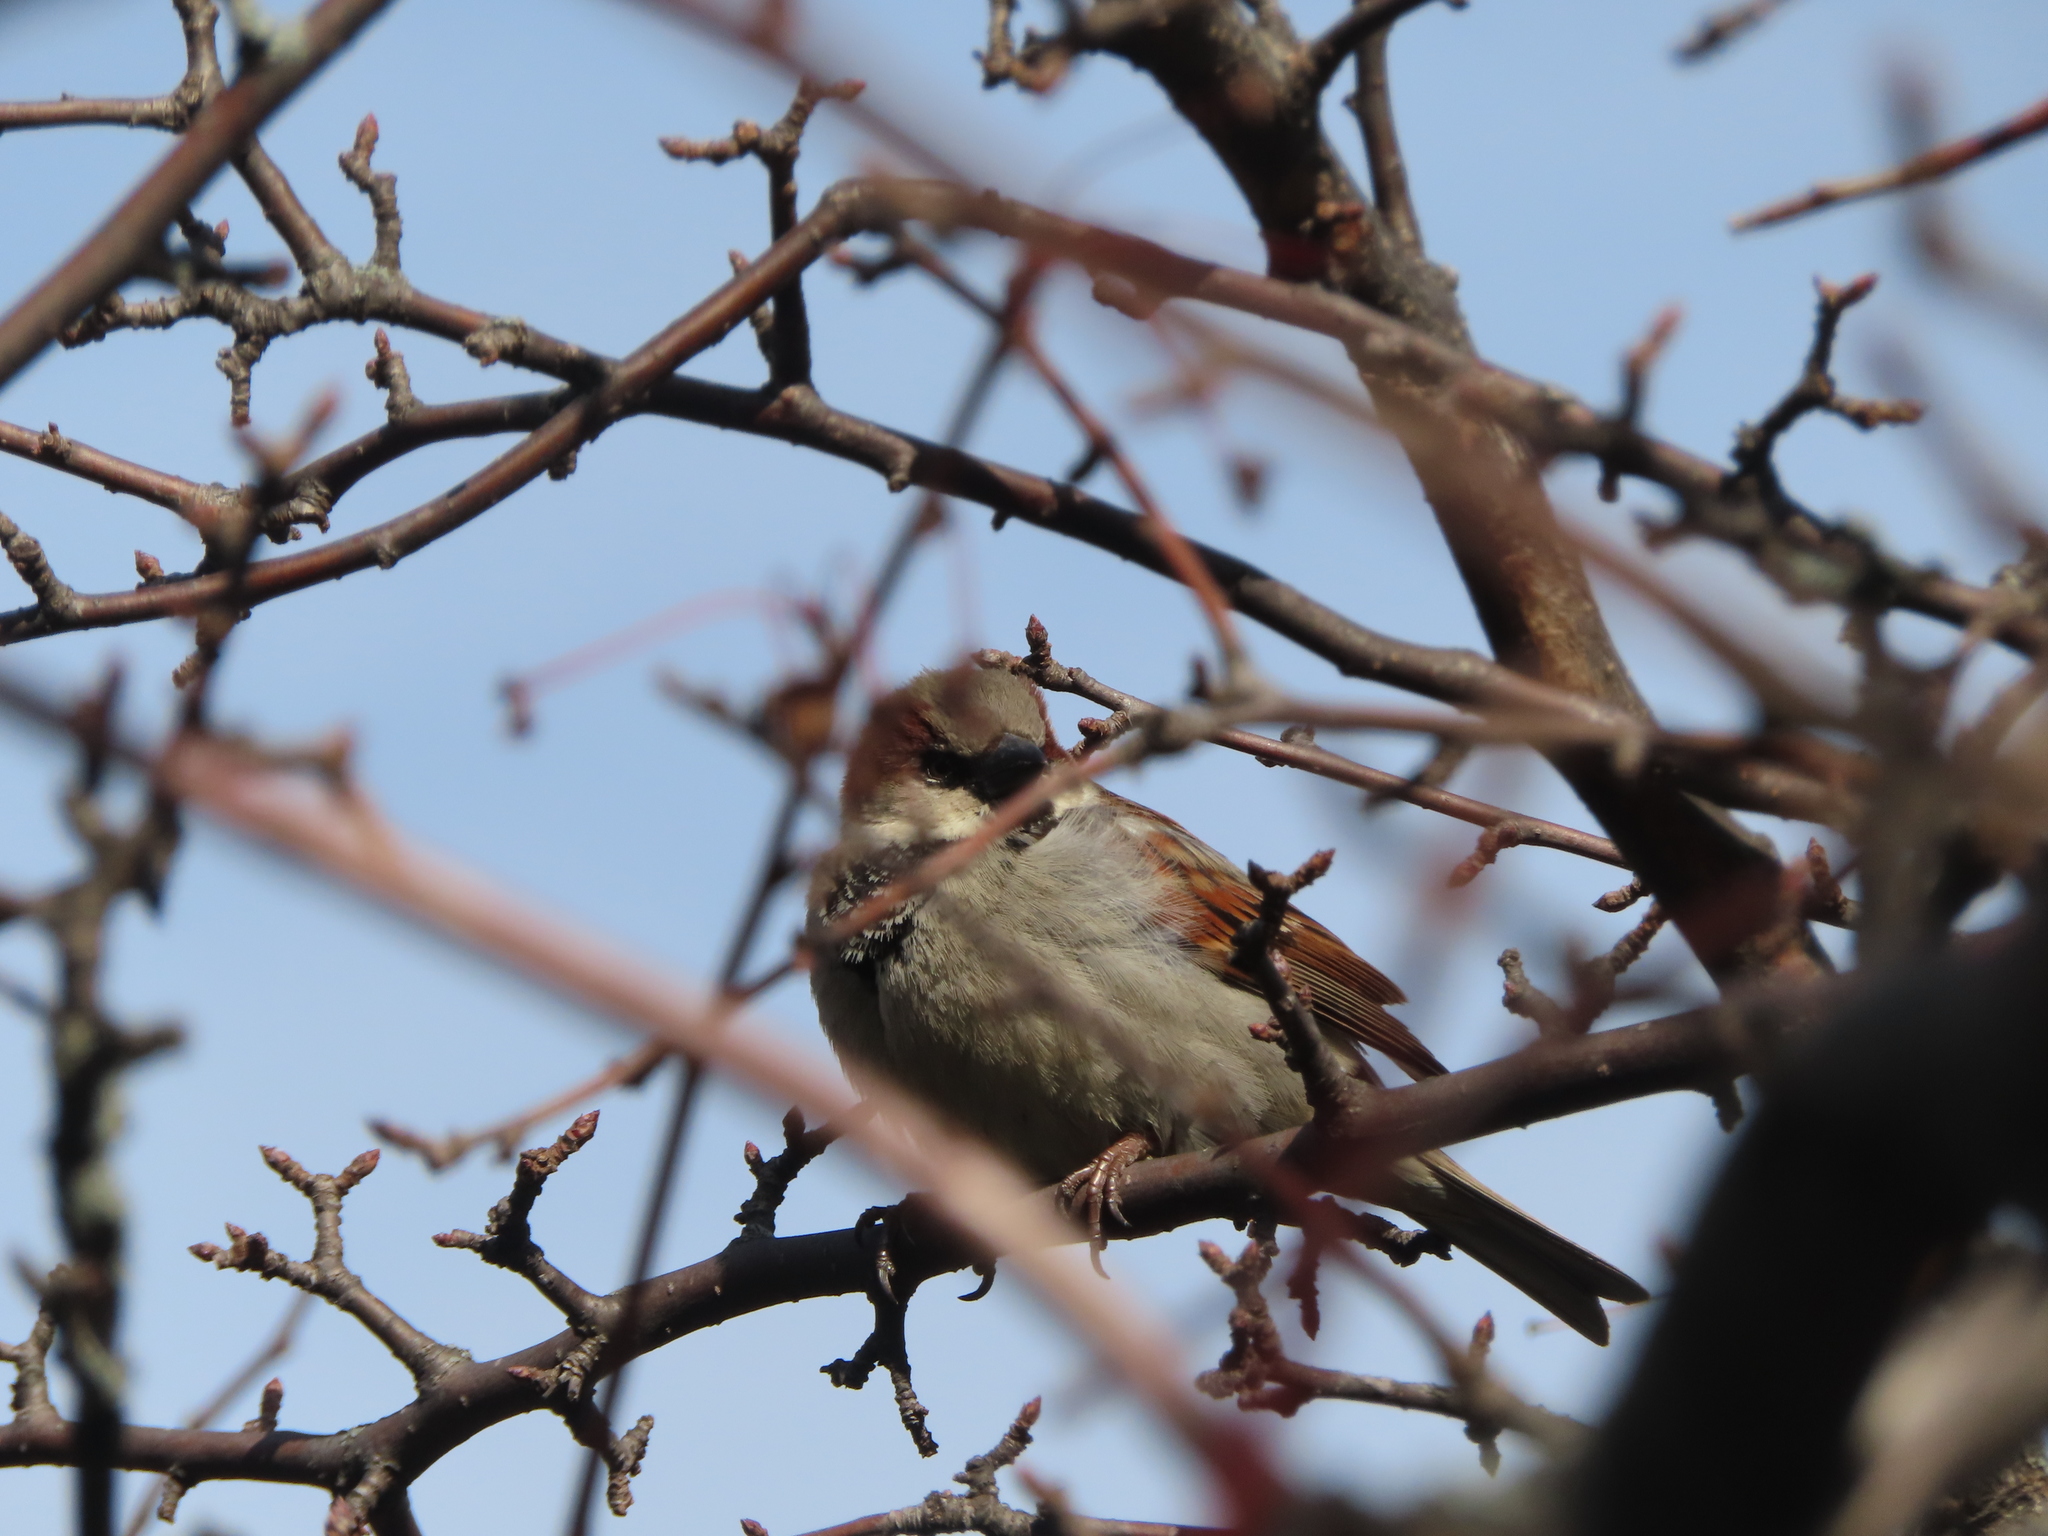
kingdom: Animalia
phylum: Chordata
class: Aves
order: Passeriformes
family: Passeridae
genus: Passer
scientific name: Passer domesticus
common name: House sparrow
